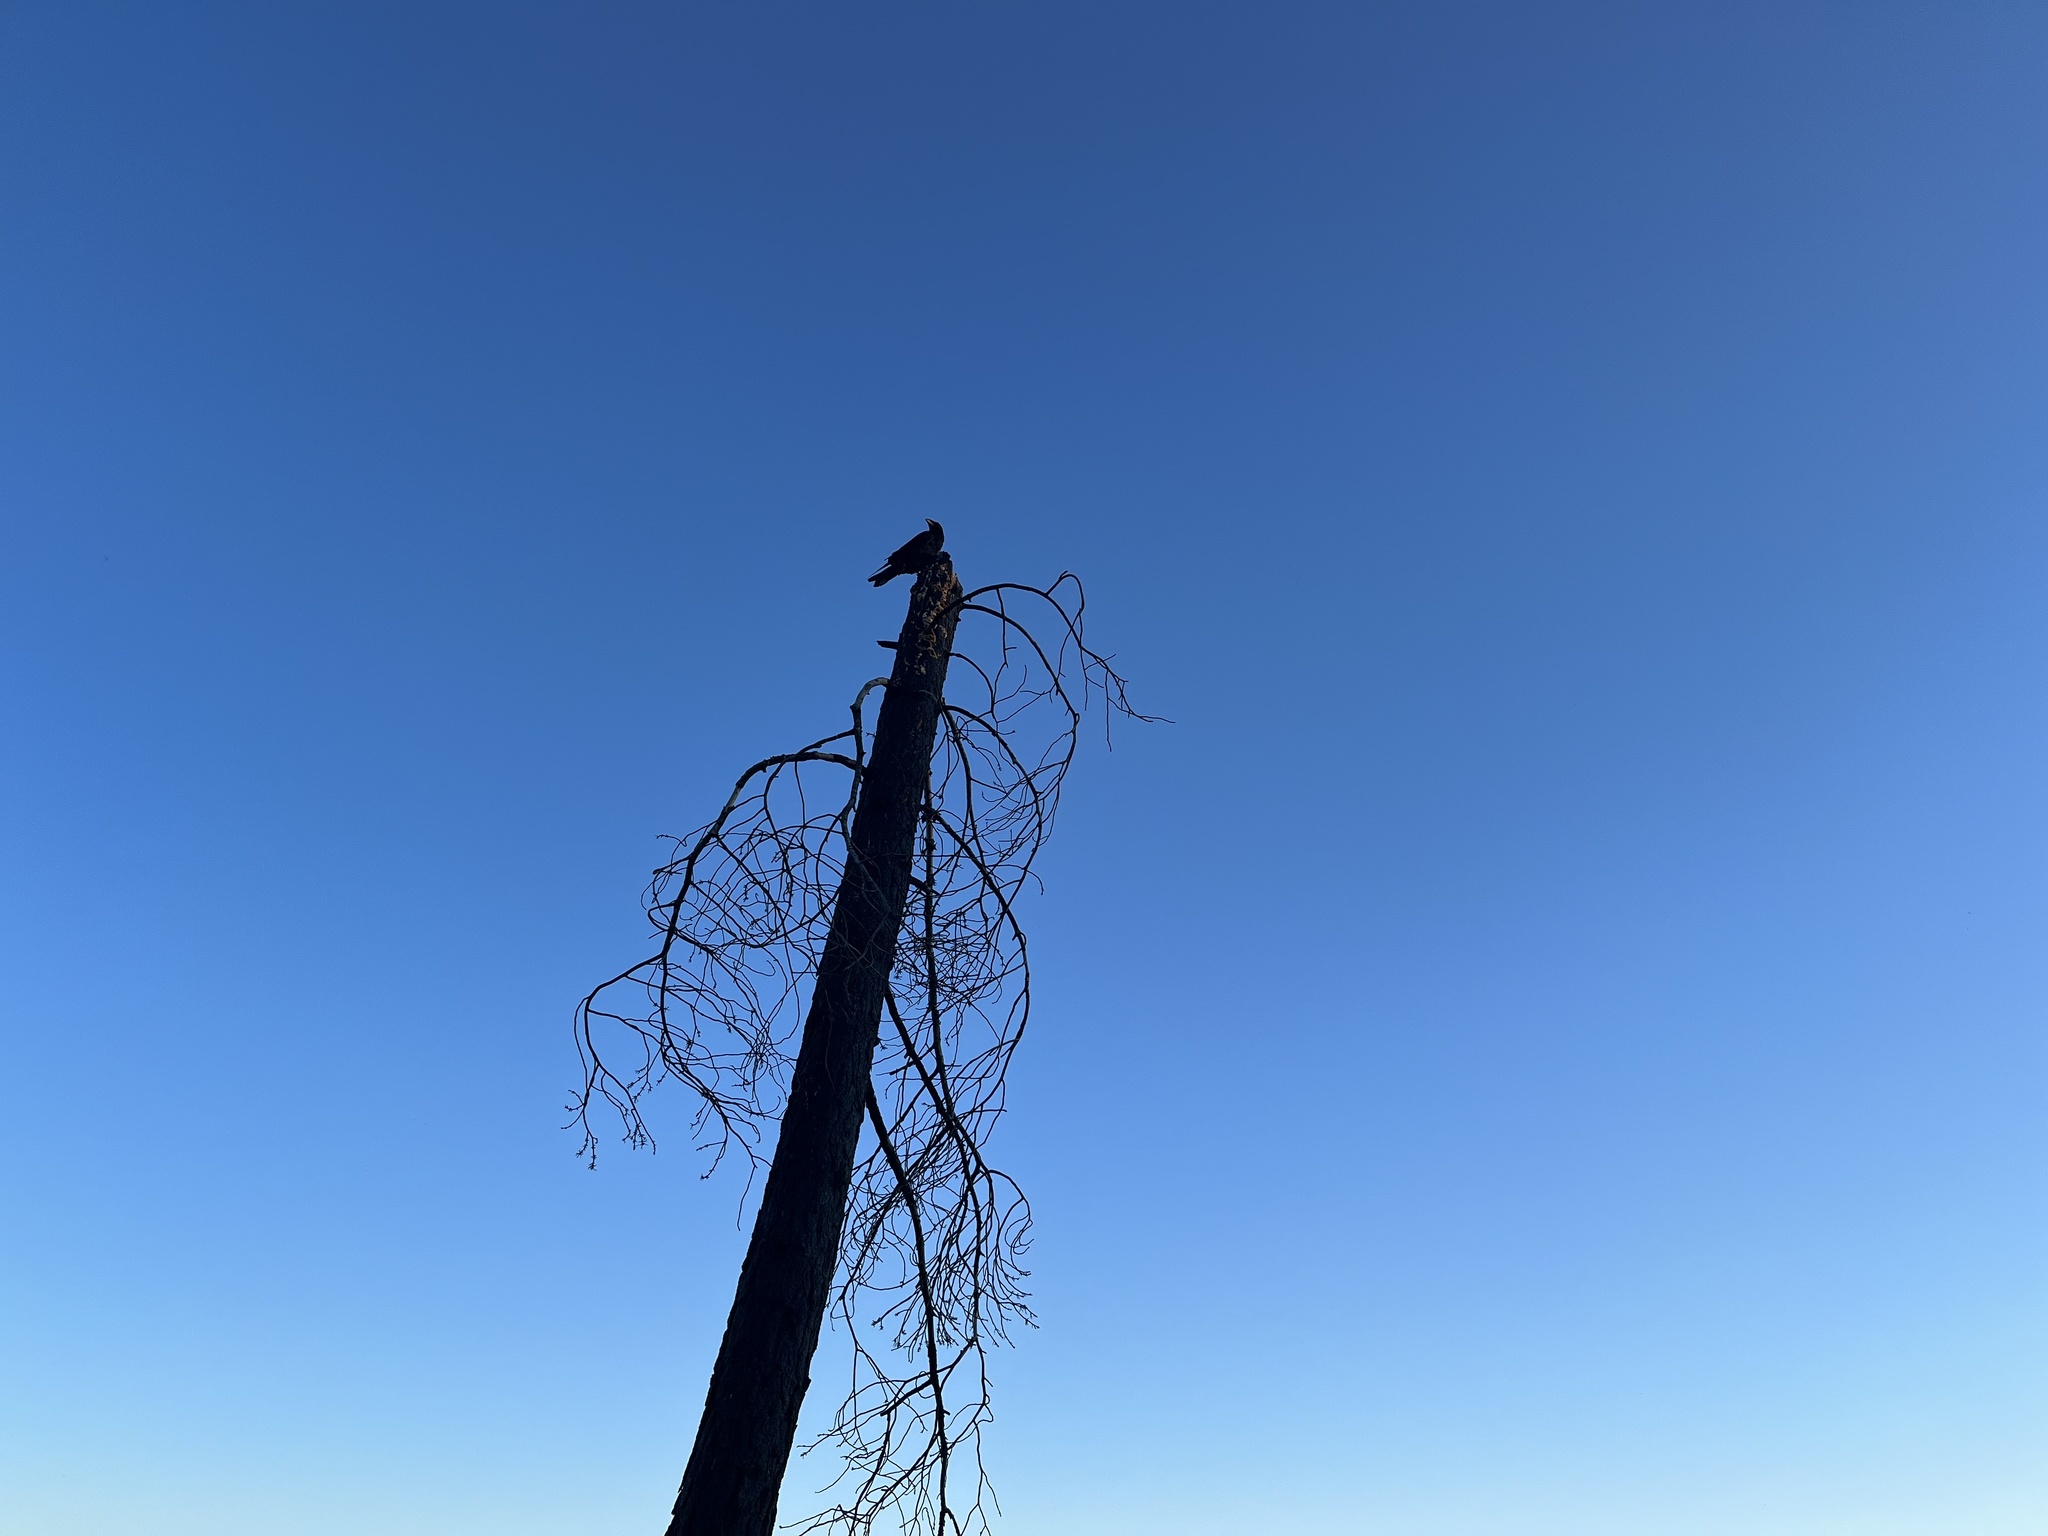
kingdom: Animalia
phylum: Chordata
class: Aves
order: Passeriformes
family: Corvidae
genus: Corvus
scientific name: Corvus corax
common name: Common raven
